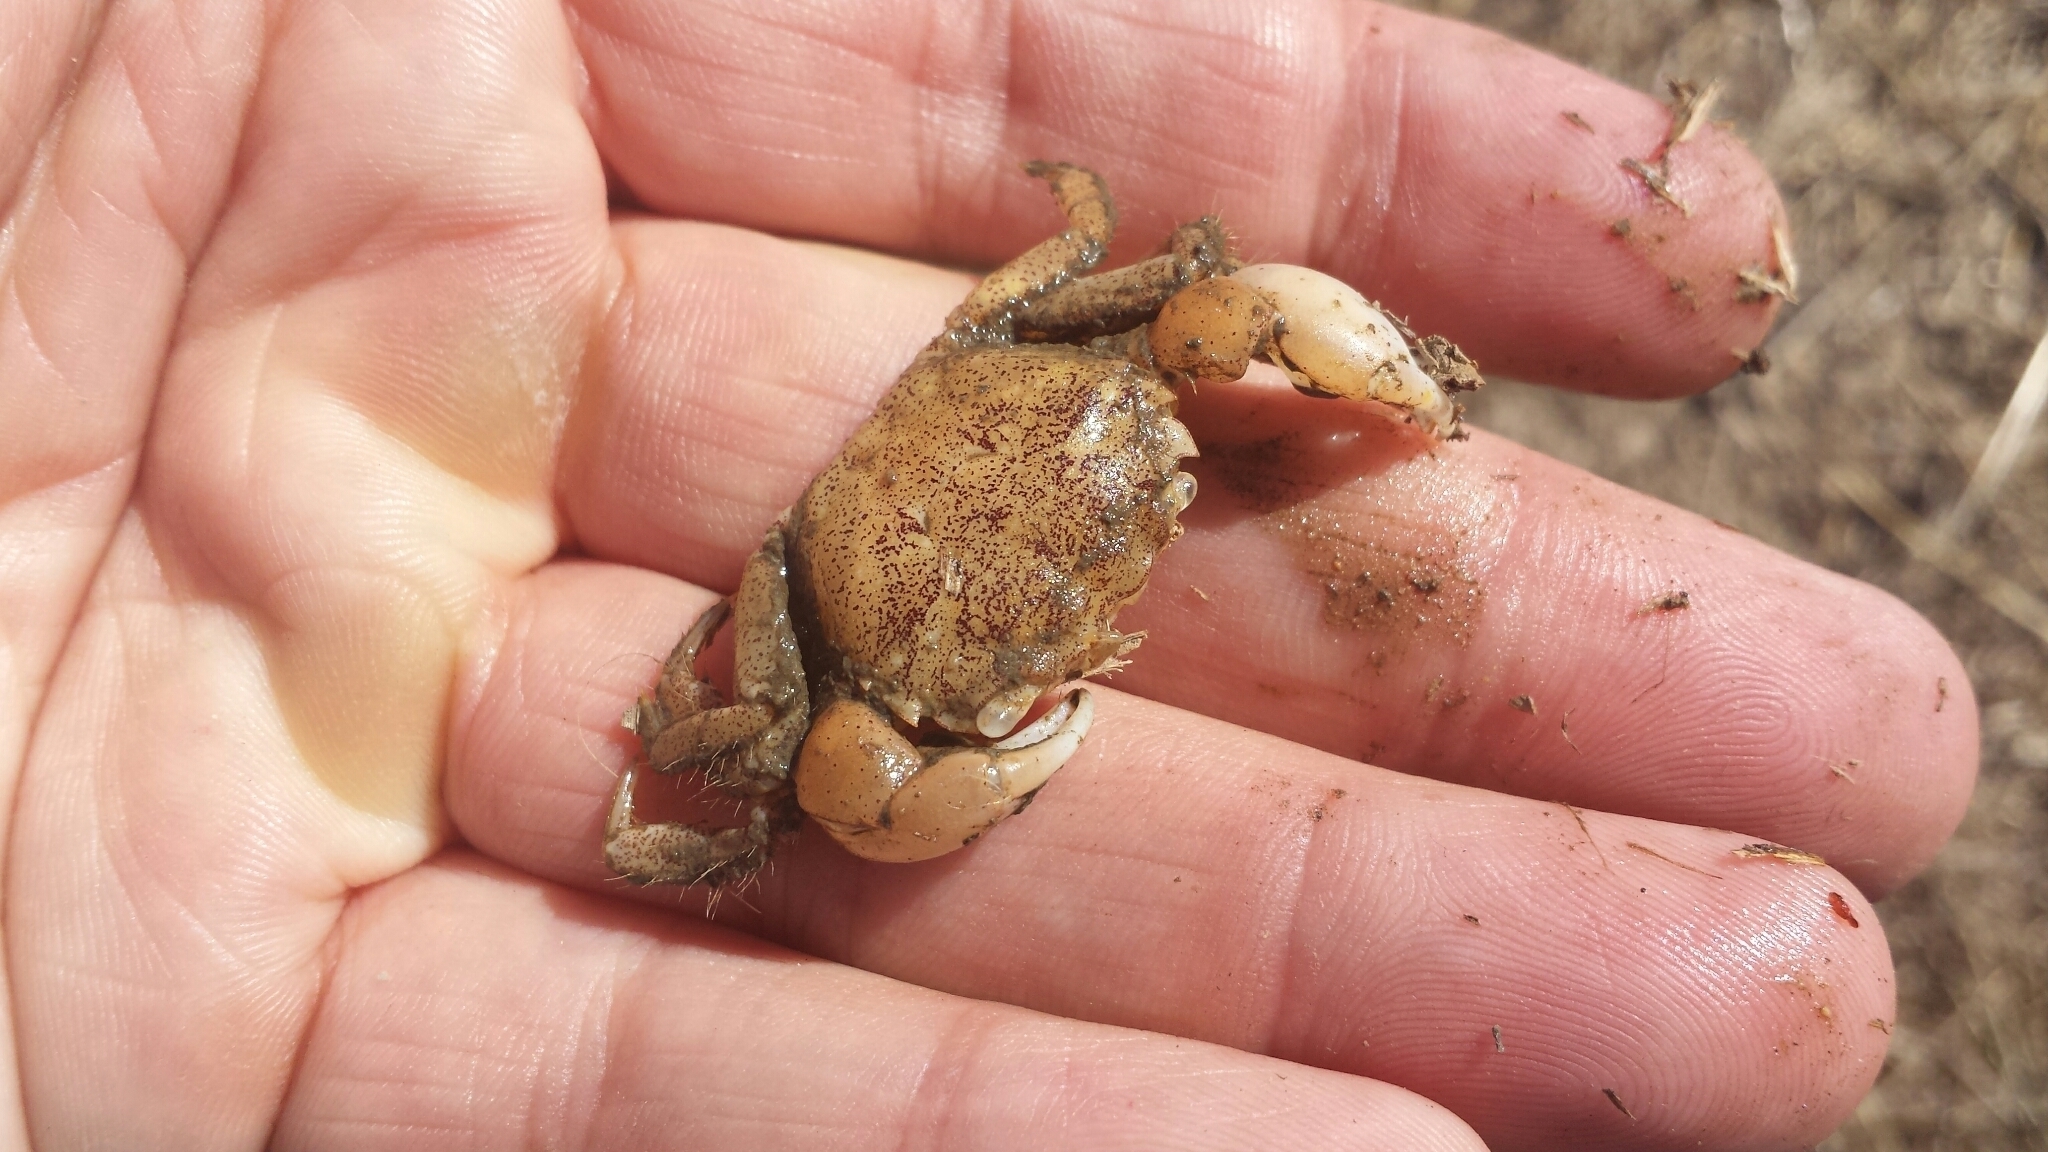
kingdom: Animalia
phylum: Arthropoda
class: Malacostraca
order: Decapoda
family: Varunidae
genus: Hemigrapsus
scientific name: Hemigrapsus oregonensis
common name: Yellow shore crab
